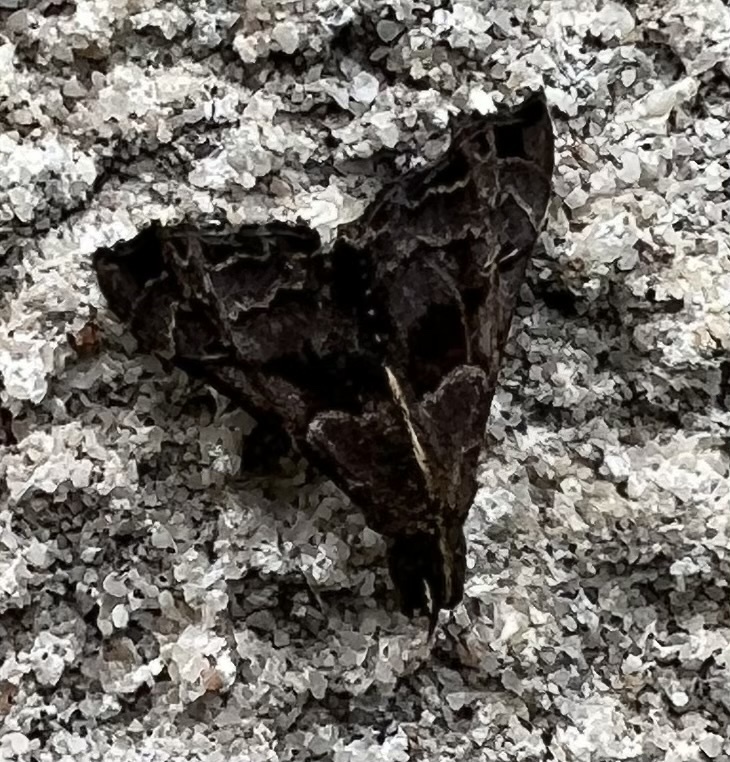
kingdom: Animalia
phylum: Arthropoda
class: Insecta
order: Lepidoptera
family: Erebidae
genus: Palthis
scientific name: Palthis asopialis
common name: Faint-spotted palthis moth
